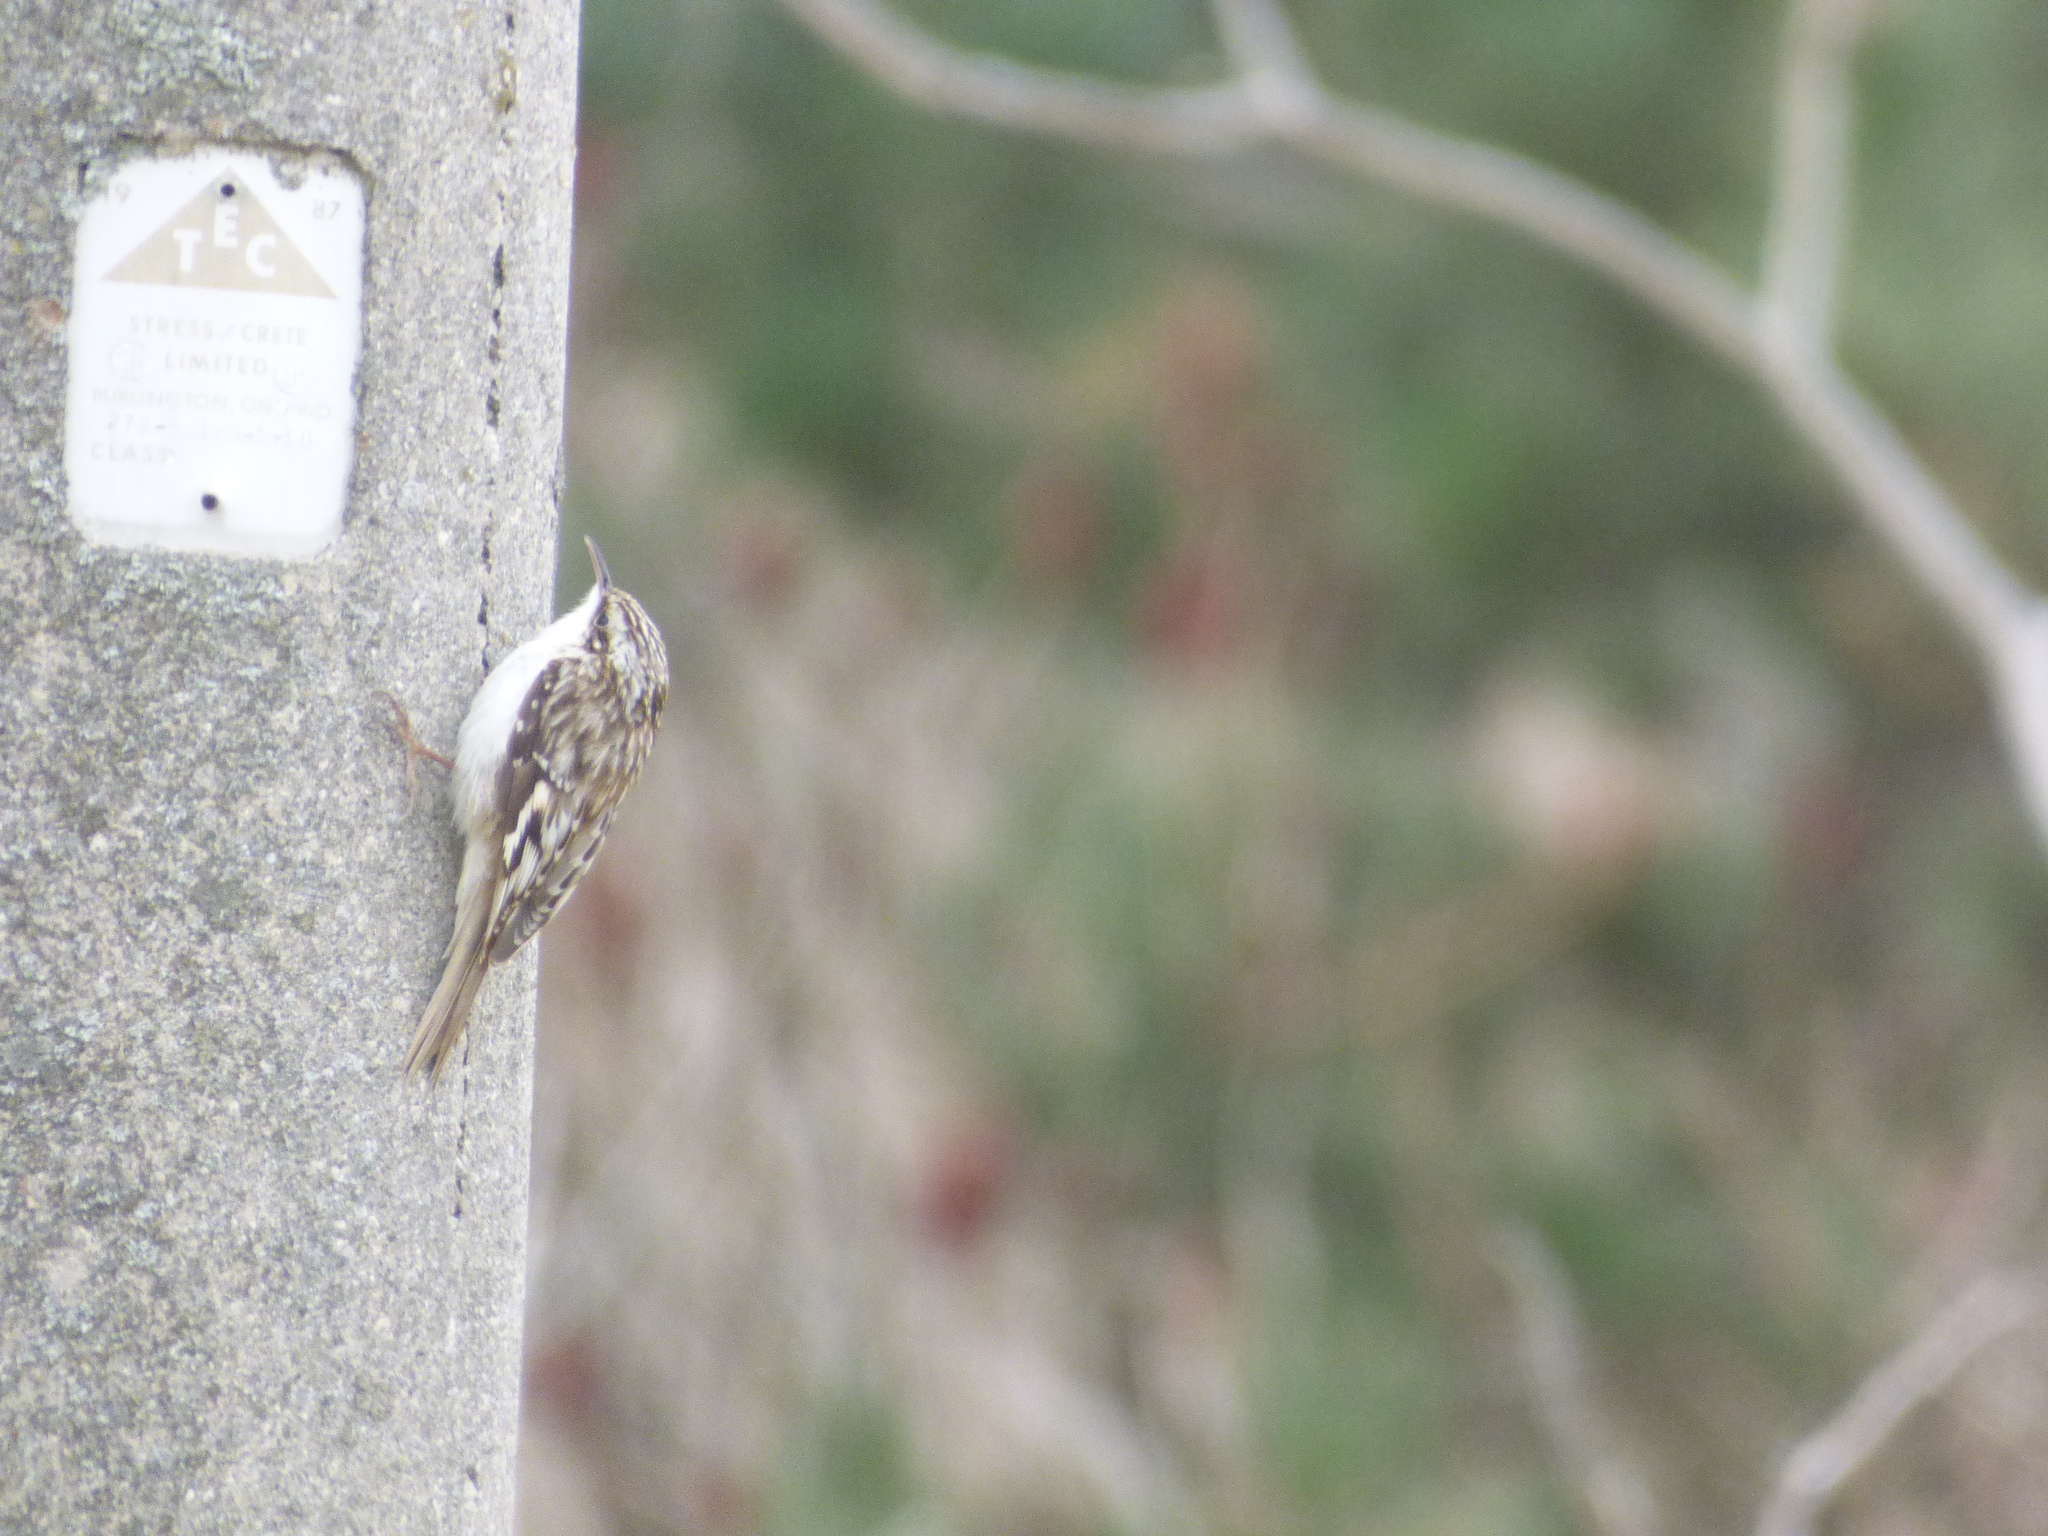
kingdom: Animalia
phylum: Chordata
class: Aves
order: Passeriformes
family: Certhiidae
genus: Certhia
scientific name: Certhia americana
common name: Brown creeper
